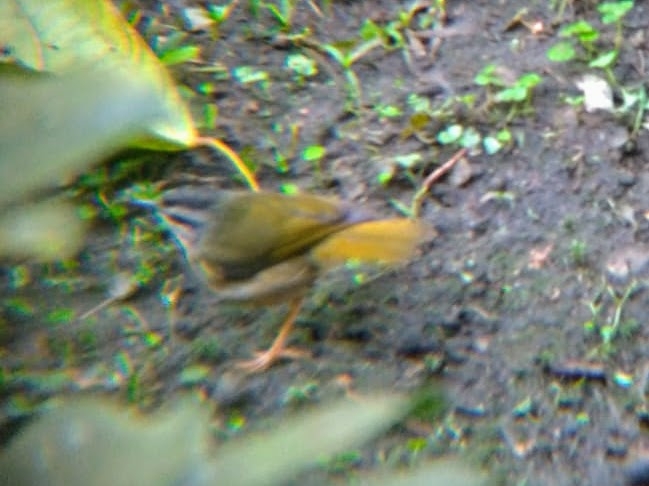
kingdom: Animalia
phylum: Chordata
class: Aves
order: Passeriformes
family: Parulidae
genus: Myiothlypis
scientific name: Myiothlypis rivularis
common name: Riverbank warbler
